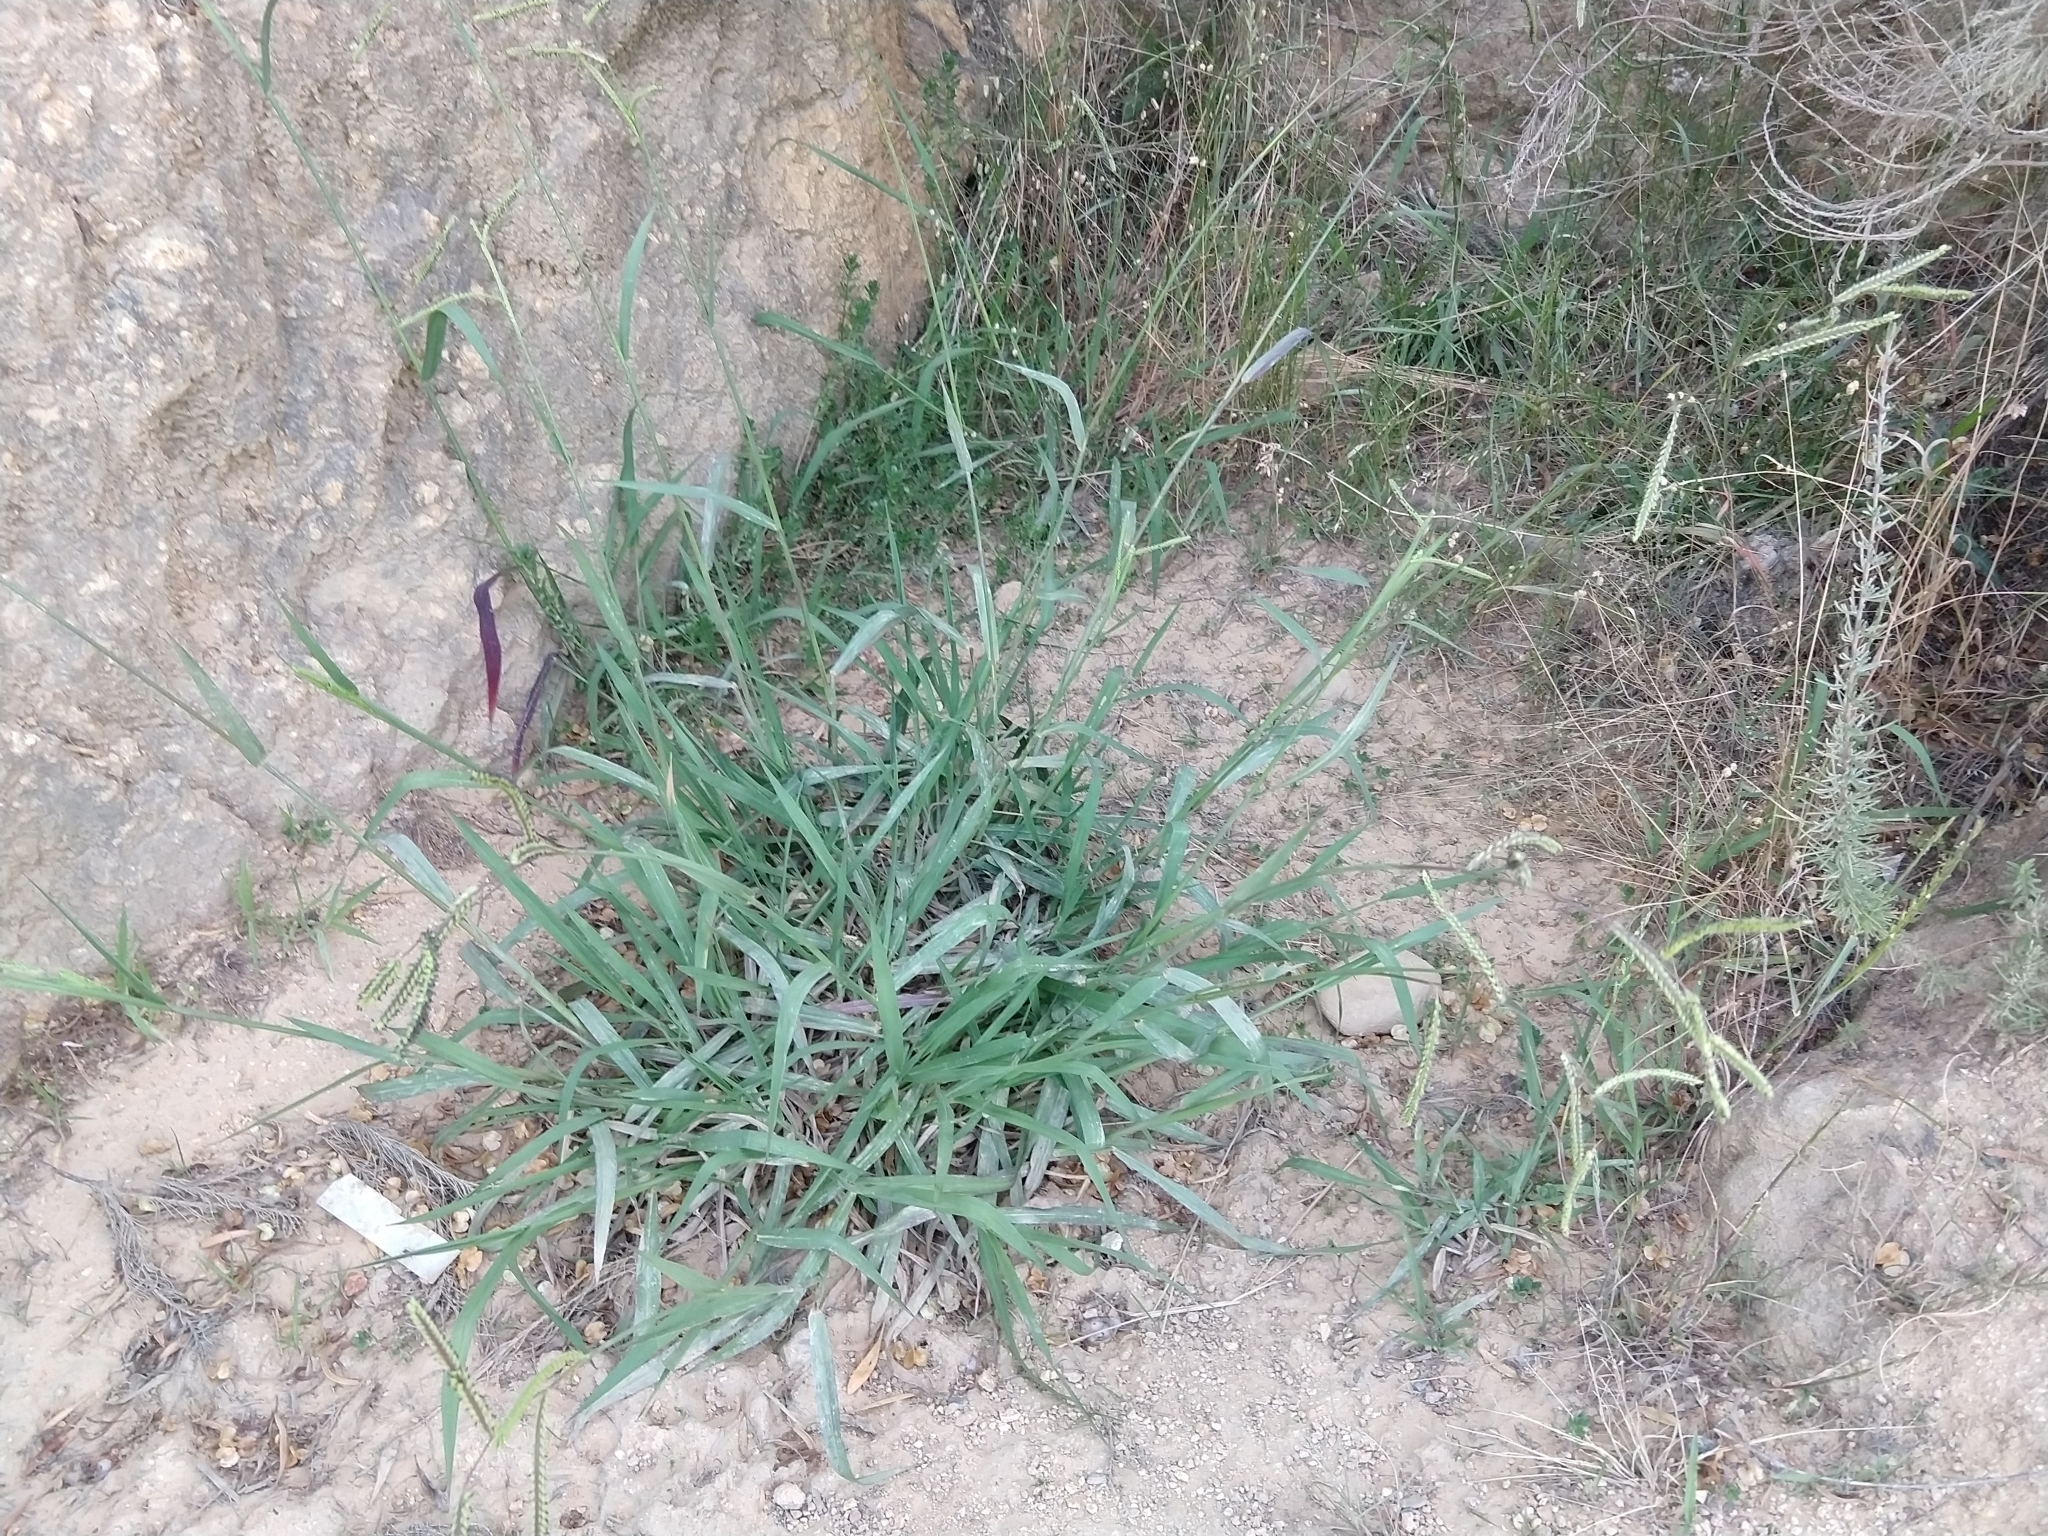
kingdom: Plantae
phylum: Tracheophyta
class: Liliopsida
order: Poales
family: Poaceae
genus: Paspalum
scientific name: Paspalum dilatatum
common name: Dallisgrass
